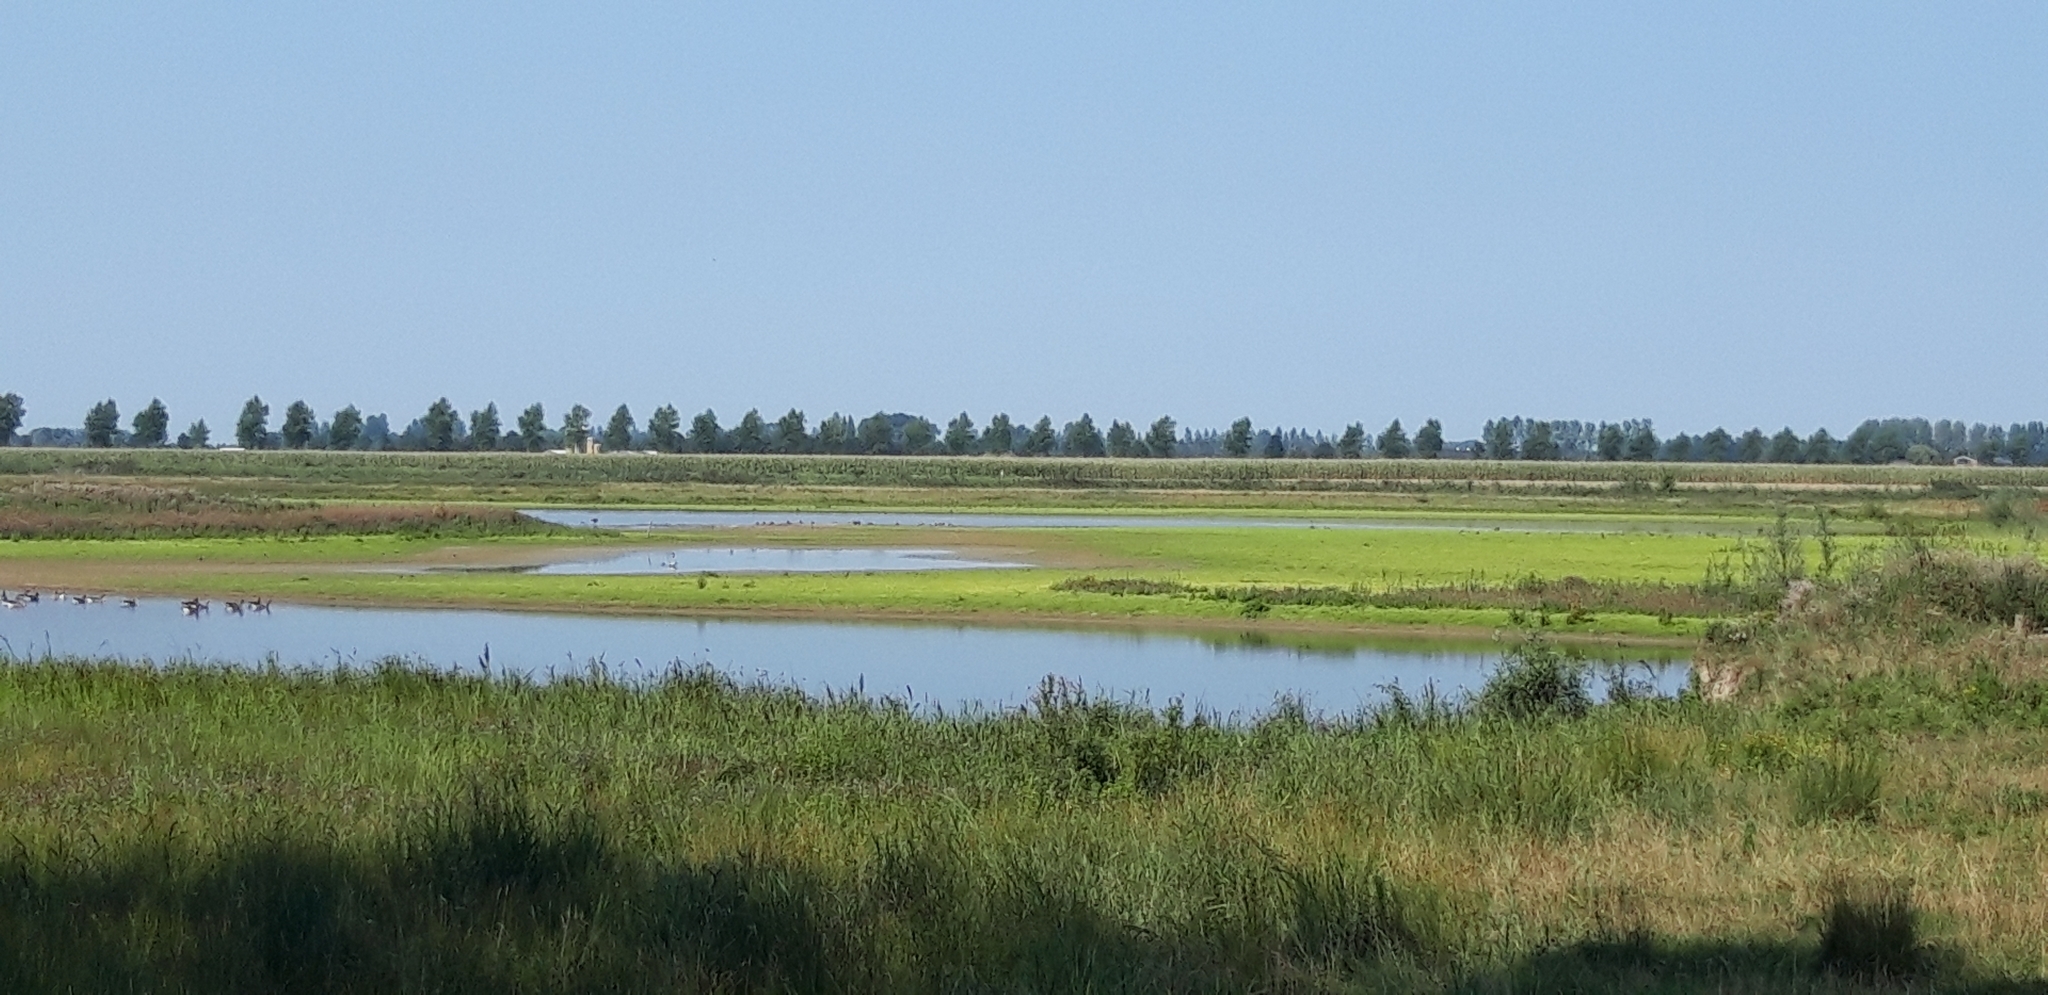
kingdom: Plantae
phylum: Tracheophyta
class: Magnoliopsida
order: Saxifragales
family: Crassulaceae
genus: Crassula
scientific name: Crassula helmsii
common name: New zealand pigmyweed
